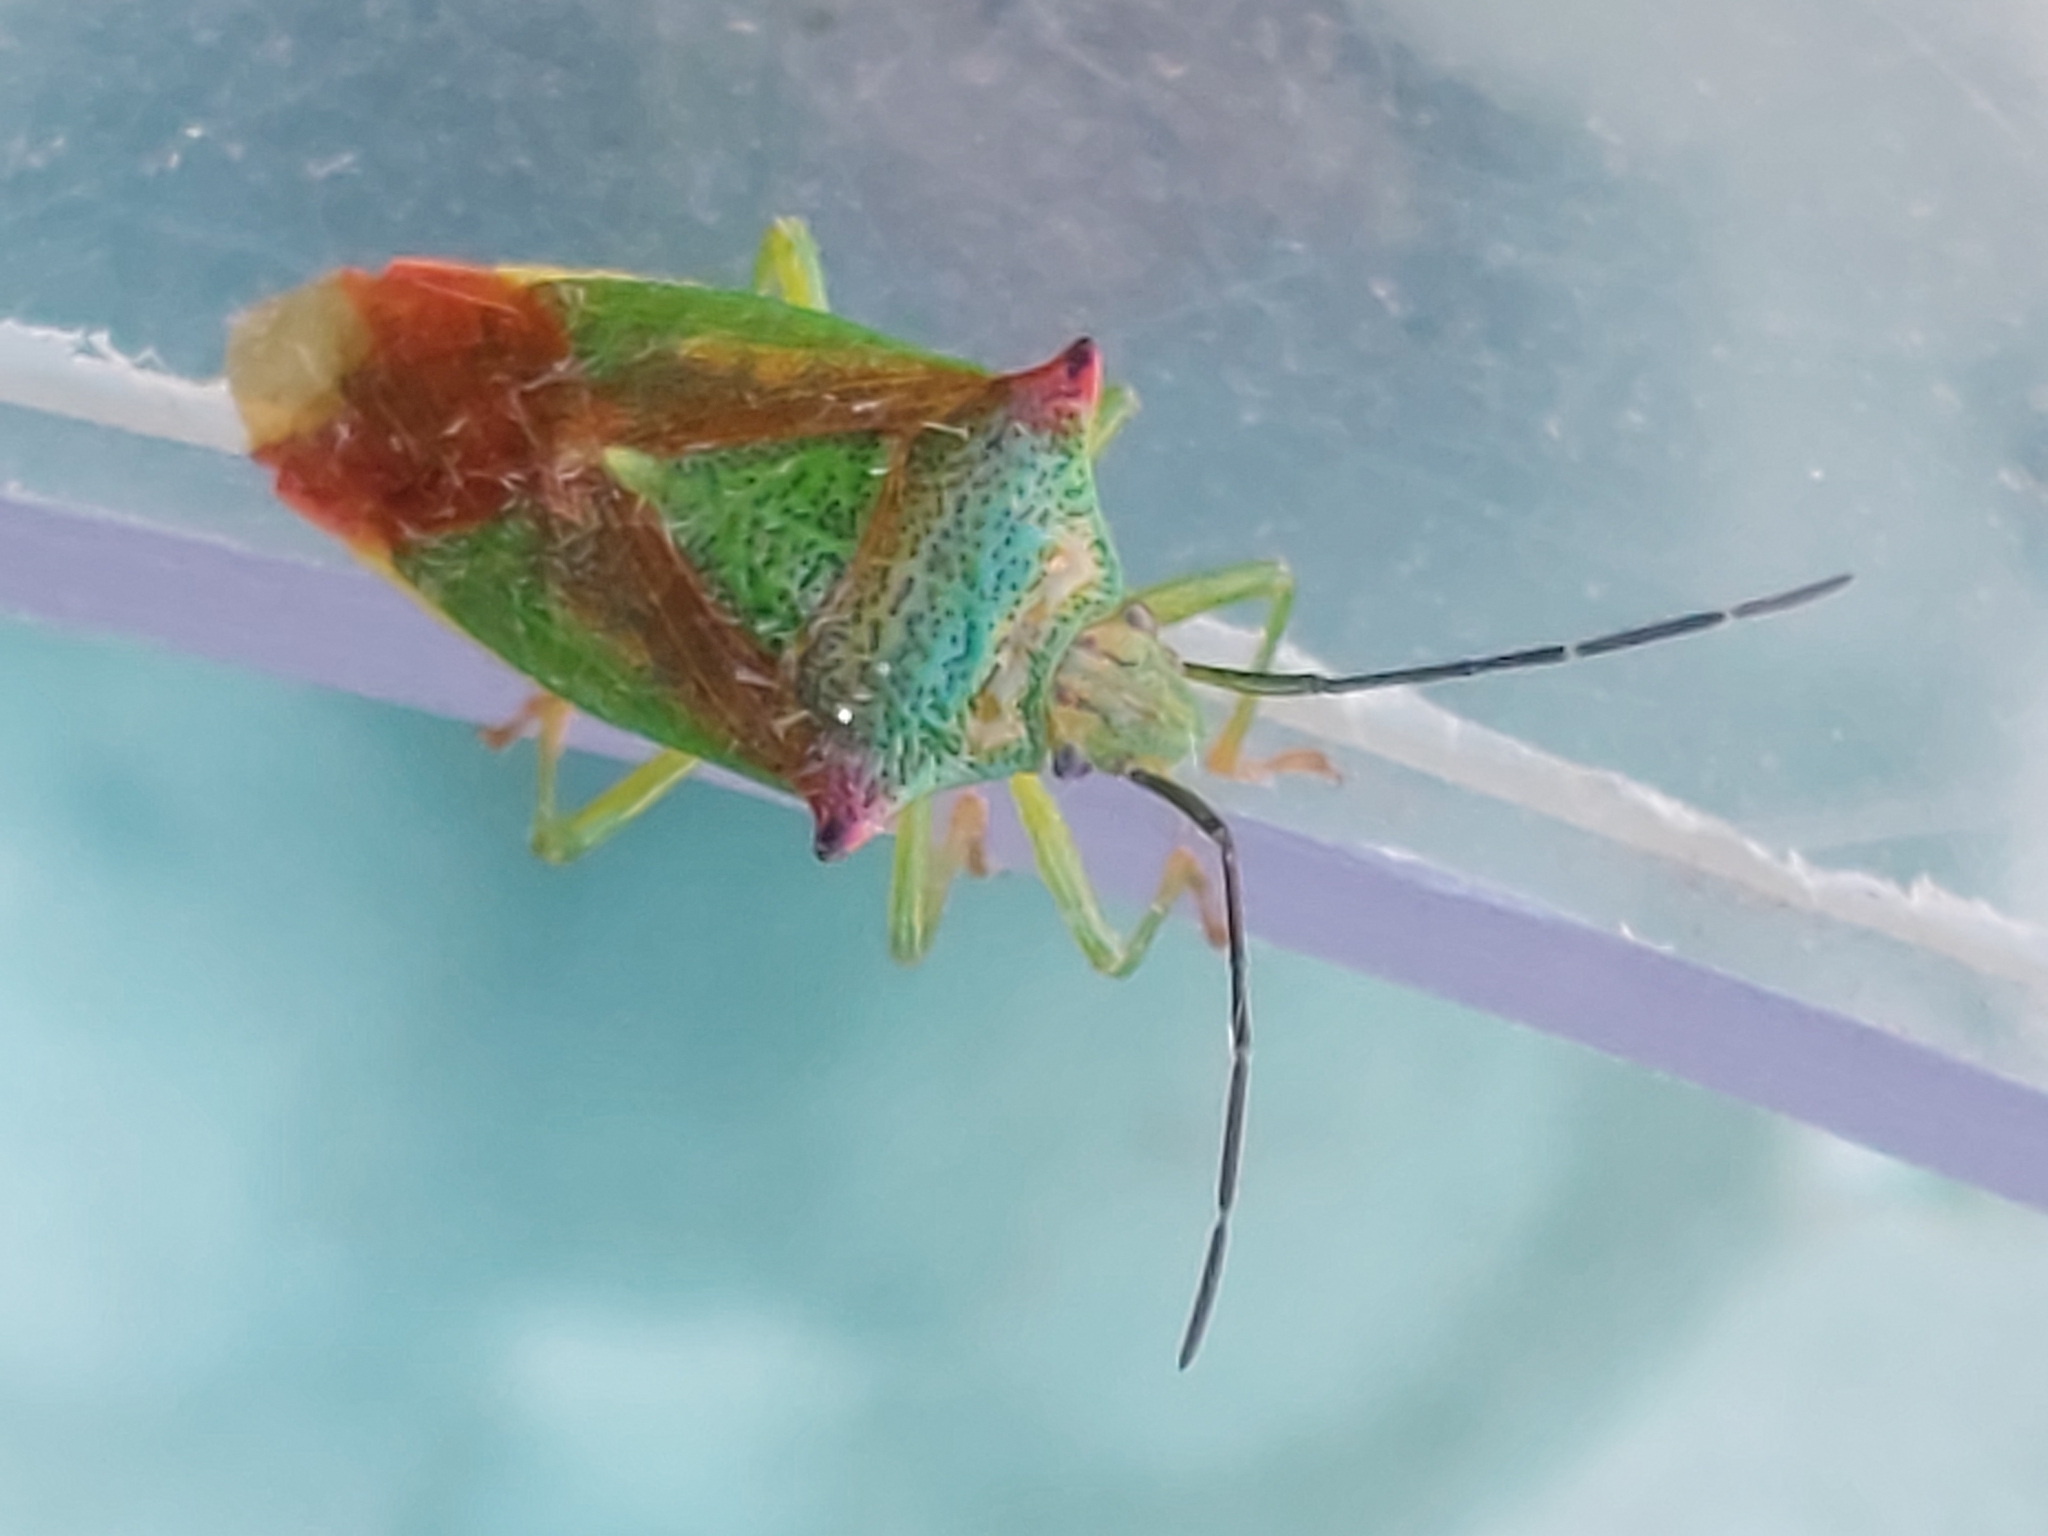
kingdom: Animalia
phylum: Arthropoda
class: Insecta
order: Hemiptera
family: Acanthosomatidae
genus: Acanthosoma
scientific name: Acanthosoma haemorrhoidale
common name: Hawthorn shieldbug
